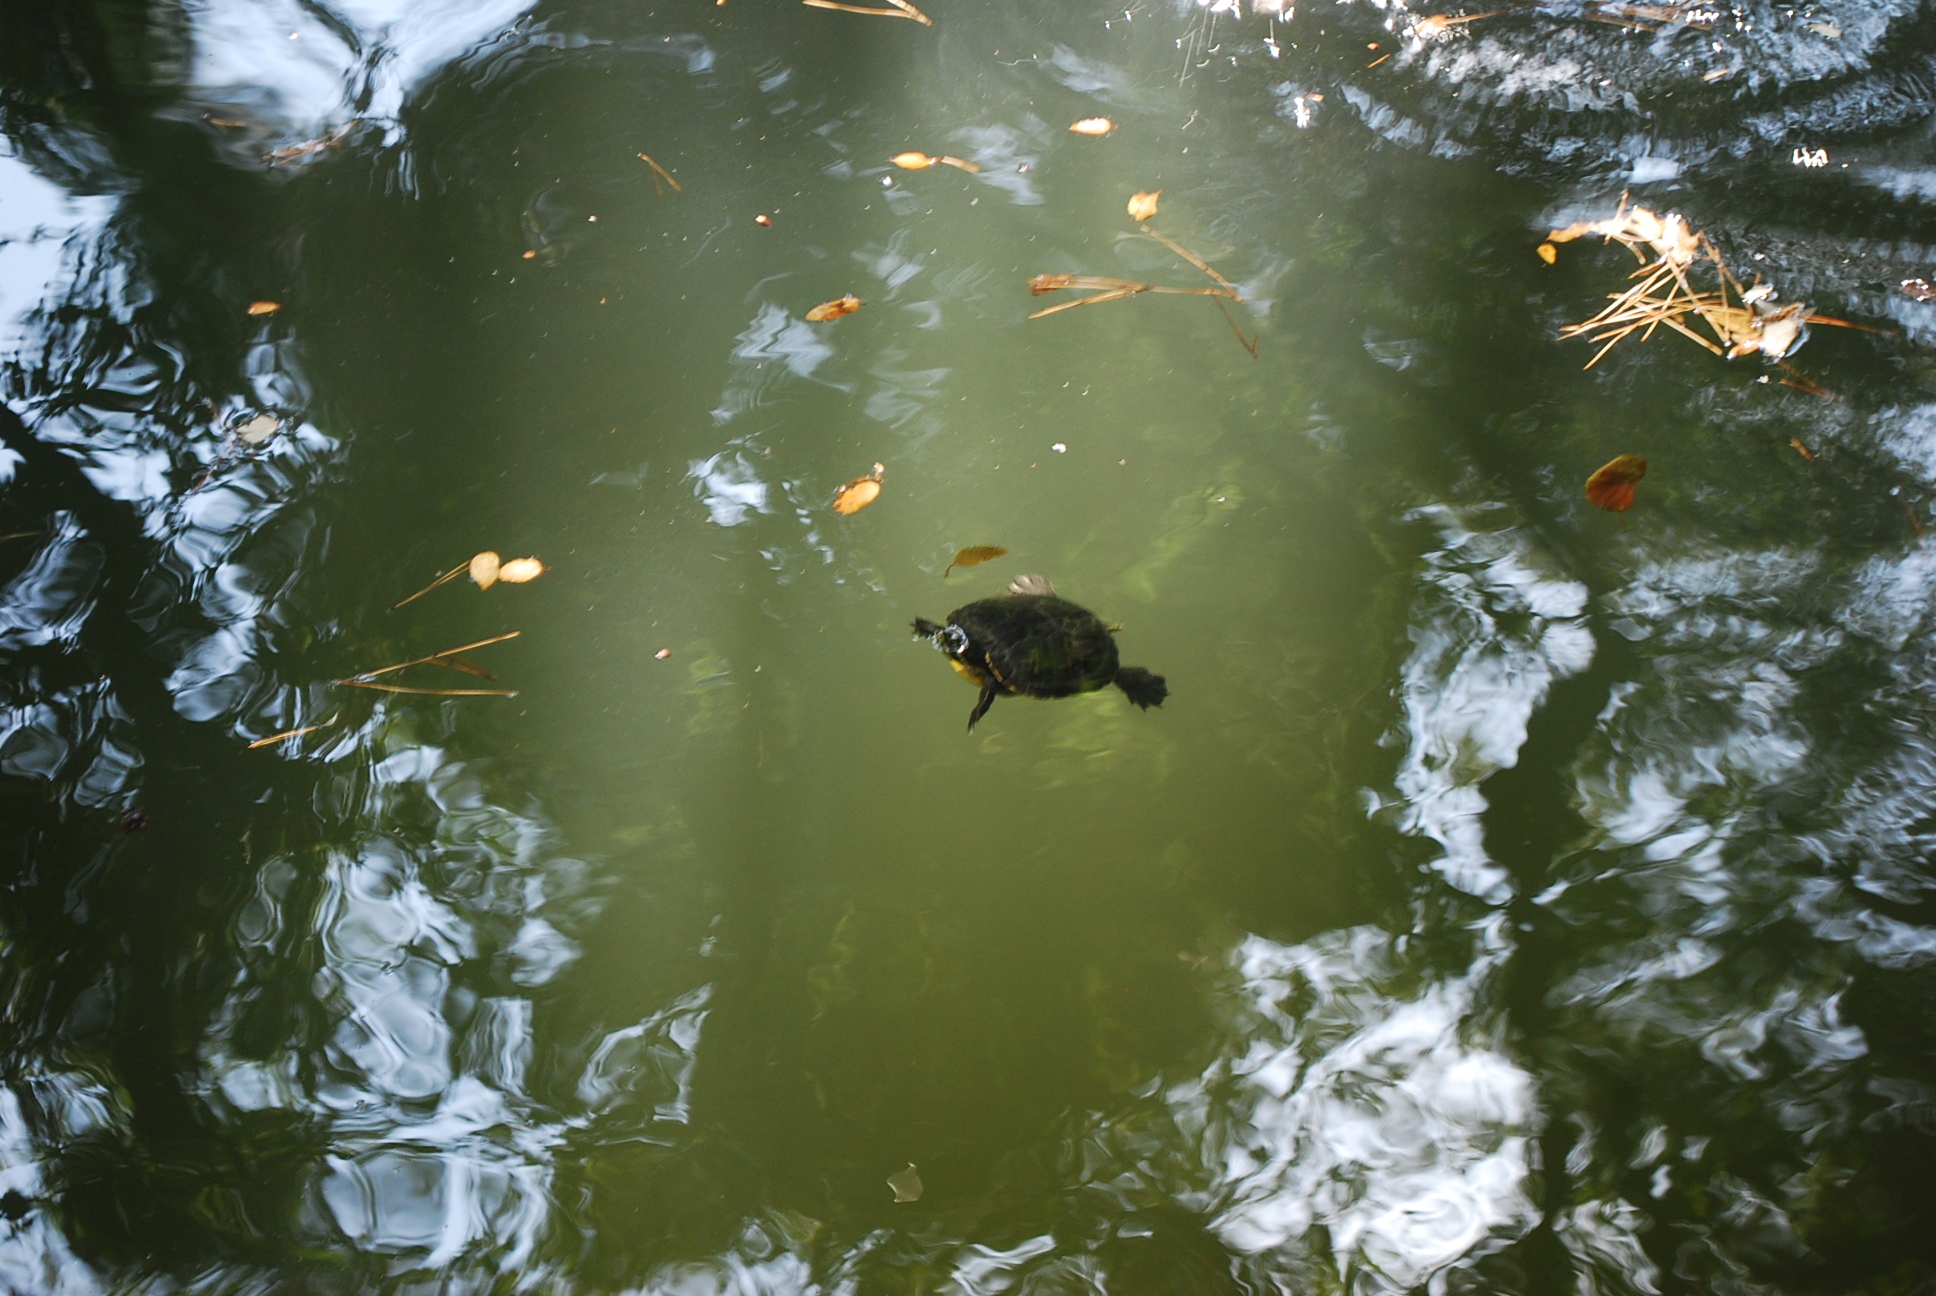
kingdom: Animalia
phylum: Chordata
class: Testudines
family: Emydidae
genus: Trachemys
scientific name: Trachemys scripta
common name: Slider
